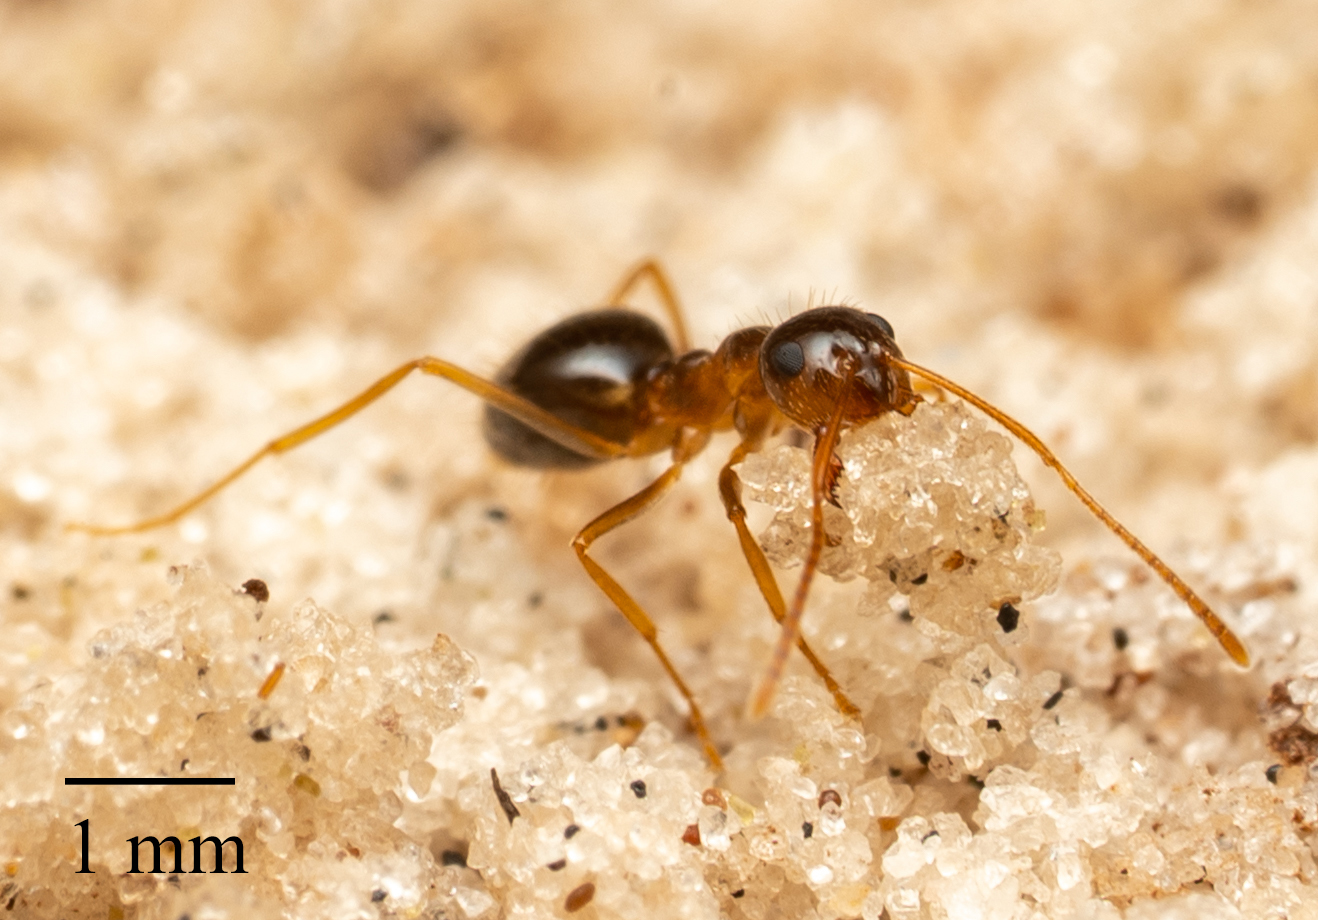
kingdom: Animalia
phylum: Arthropoda
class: Insecta
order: Hymenoptera
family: Formicidae
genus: Prenolepis
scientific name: Prenolepis imparis
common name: Small honey ant
